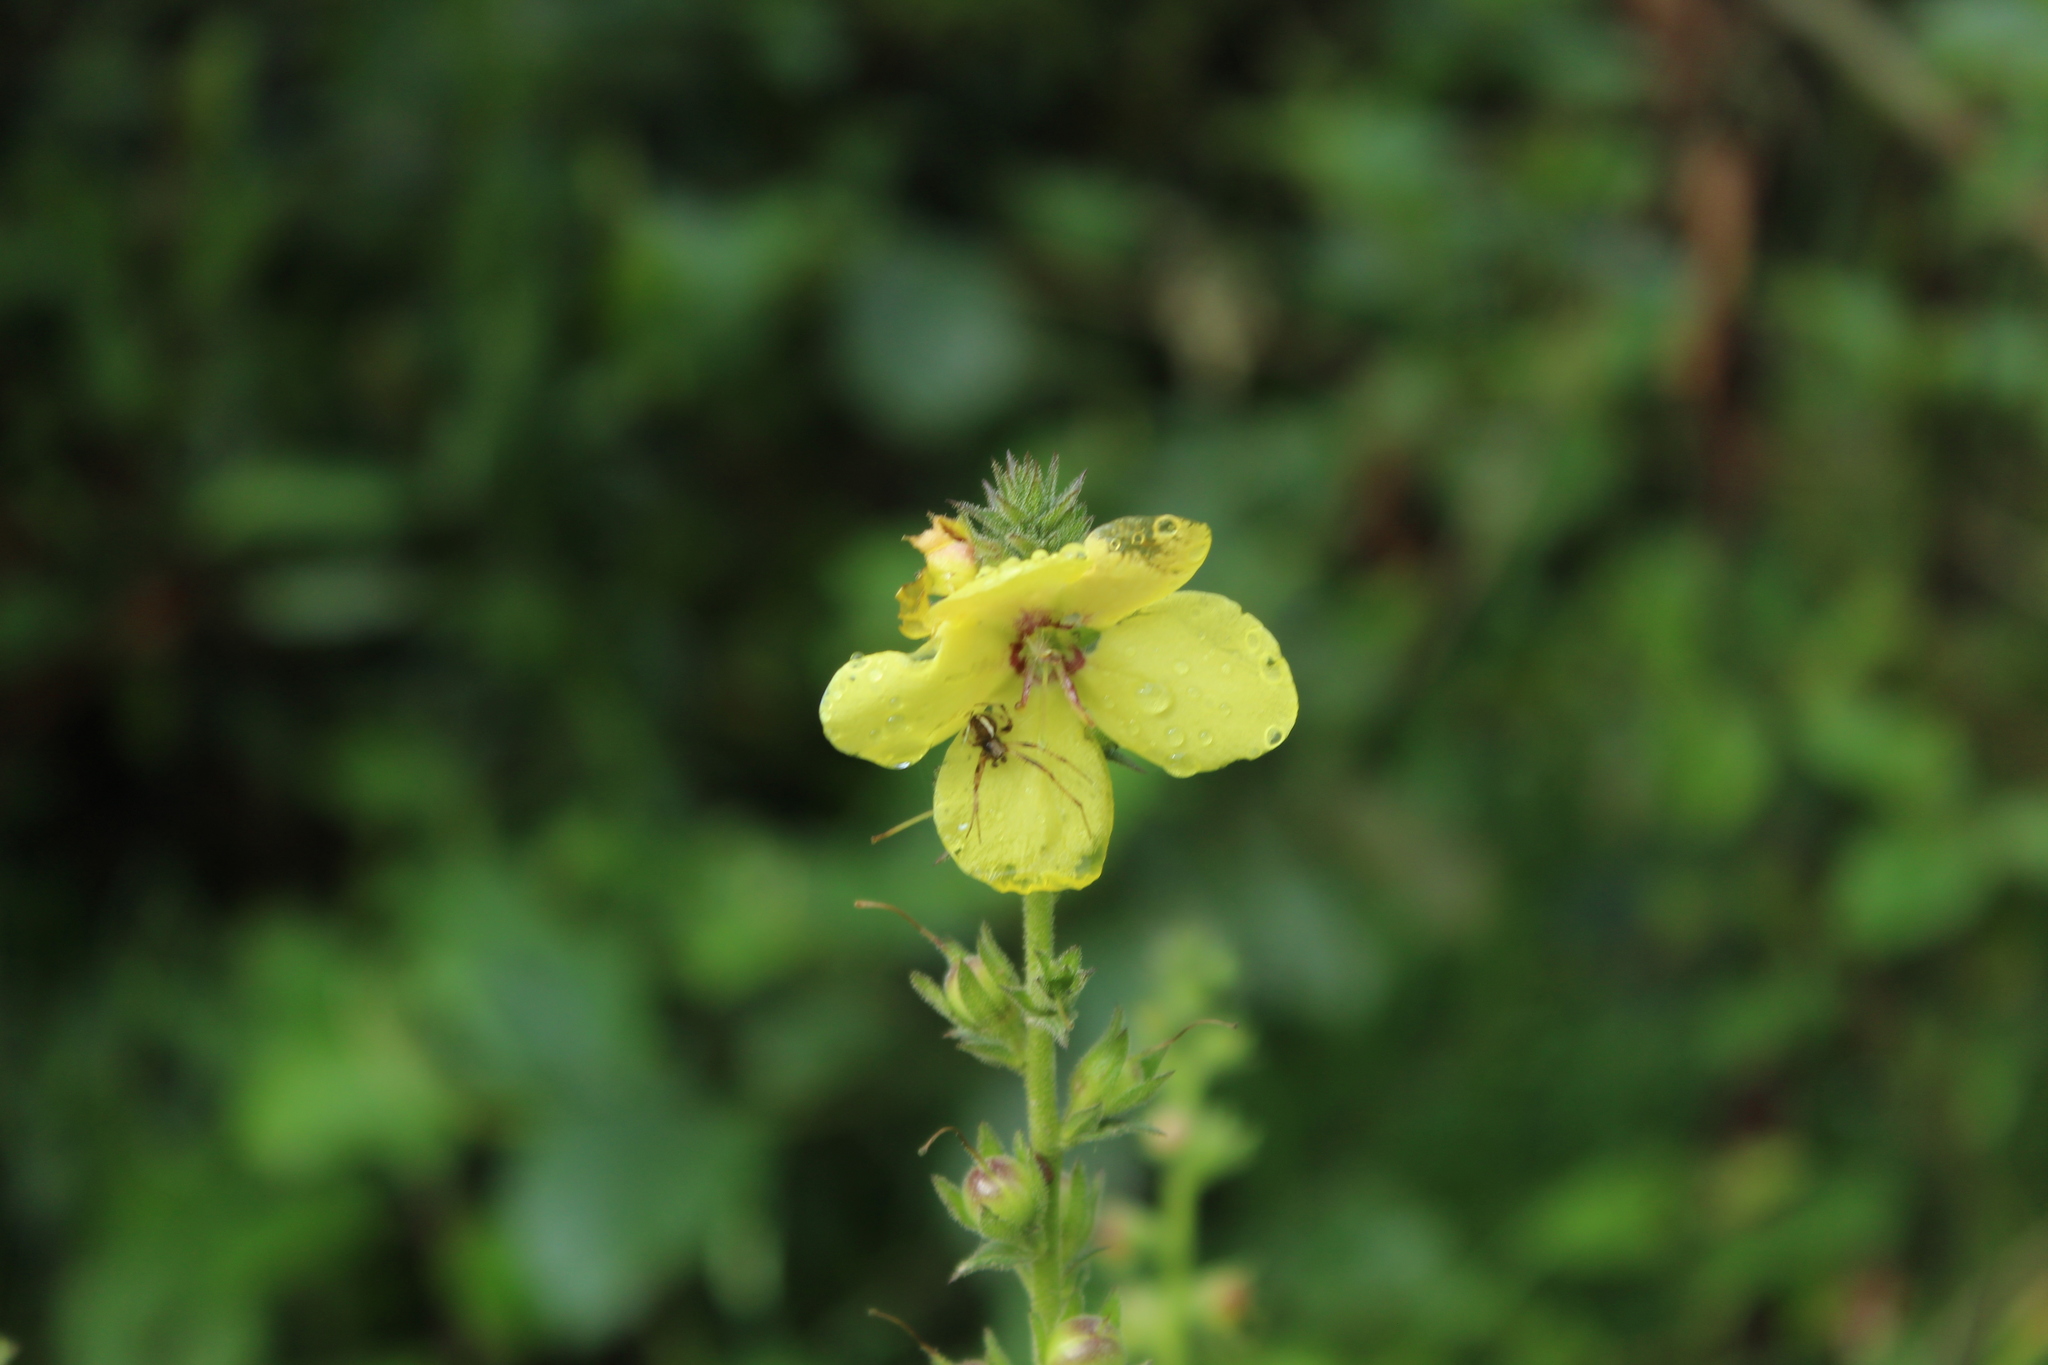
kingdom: Plantae
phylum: Tracheophyta
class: Magnoliopsida
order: Lamiales
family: Scrophulariaceae
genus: Verbascum
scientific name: Verbascum virgatum
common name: Twiggy mullein
